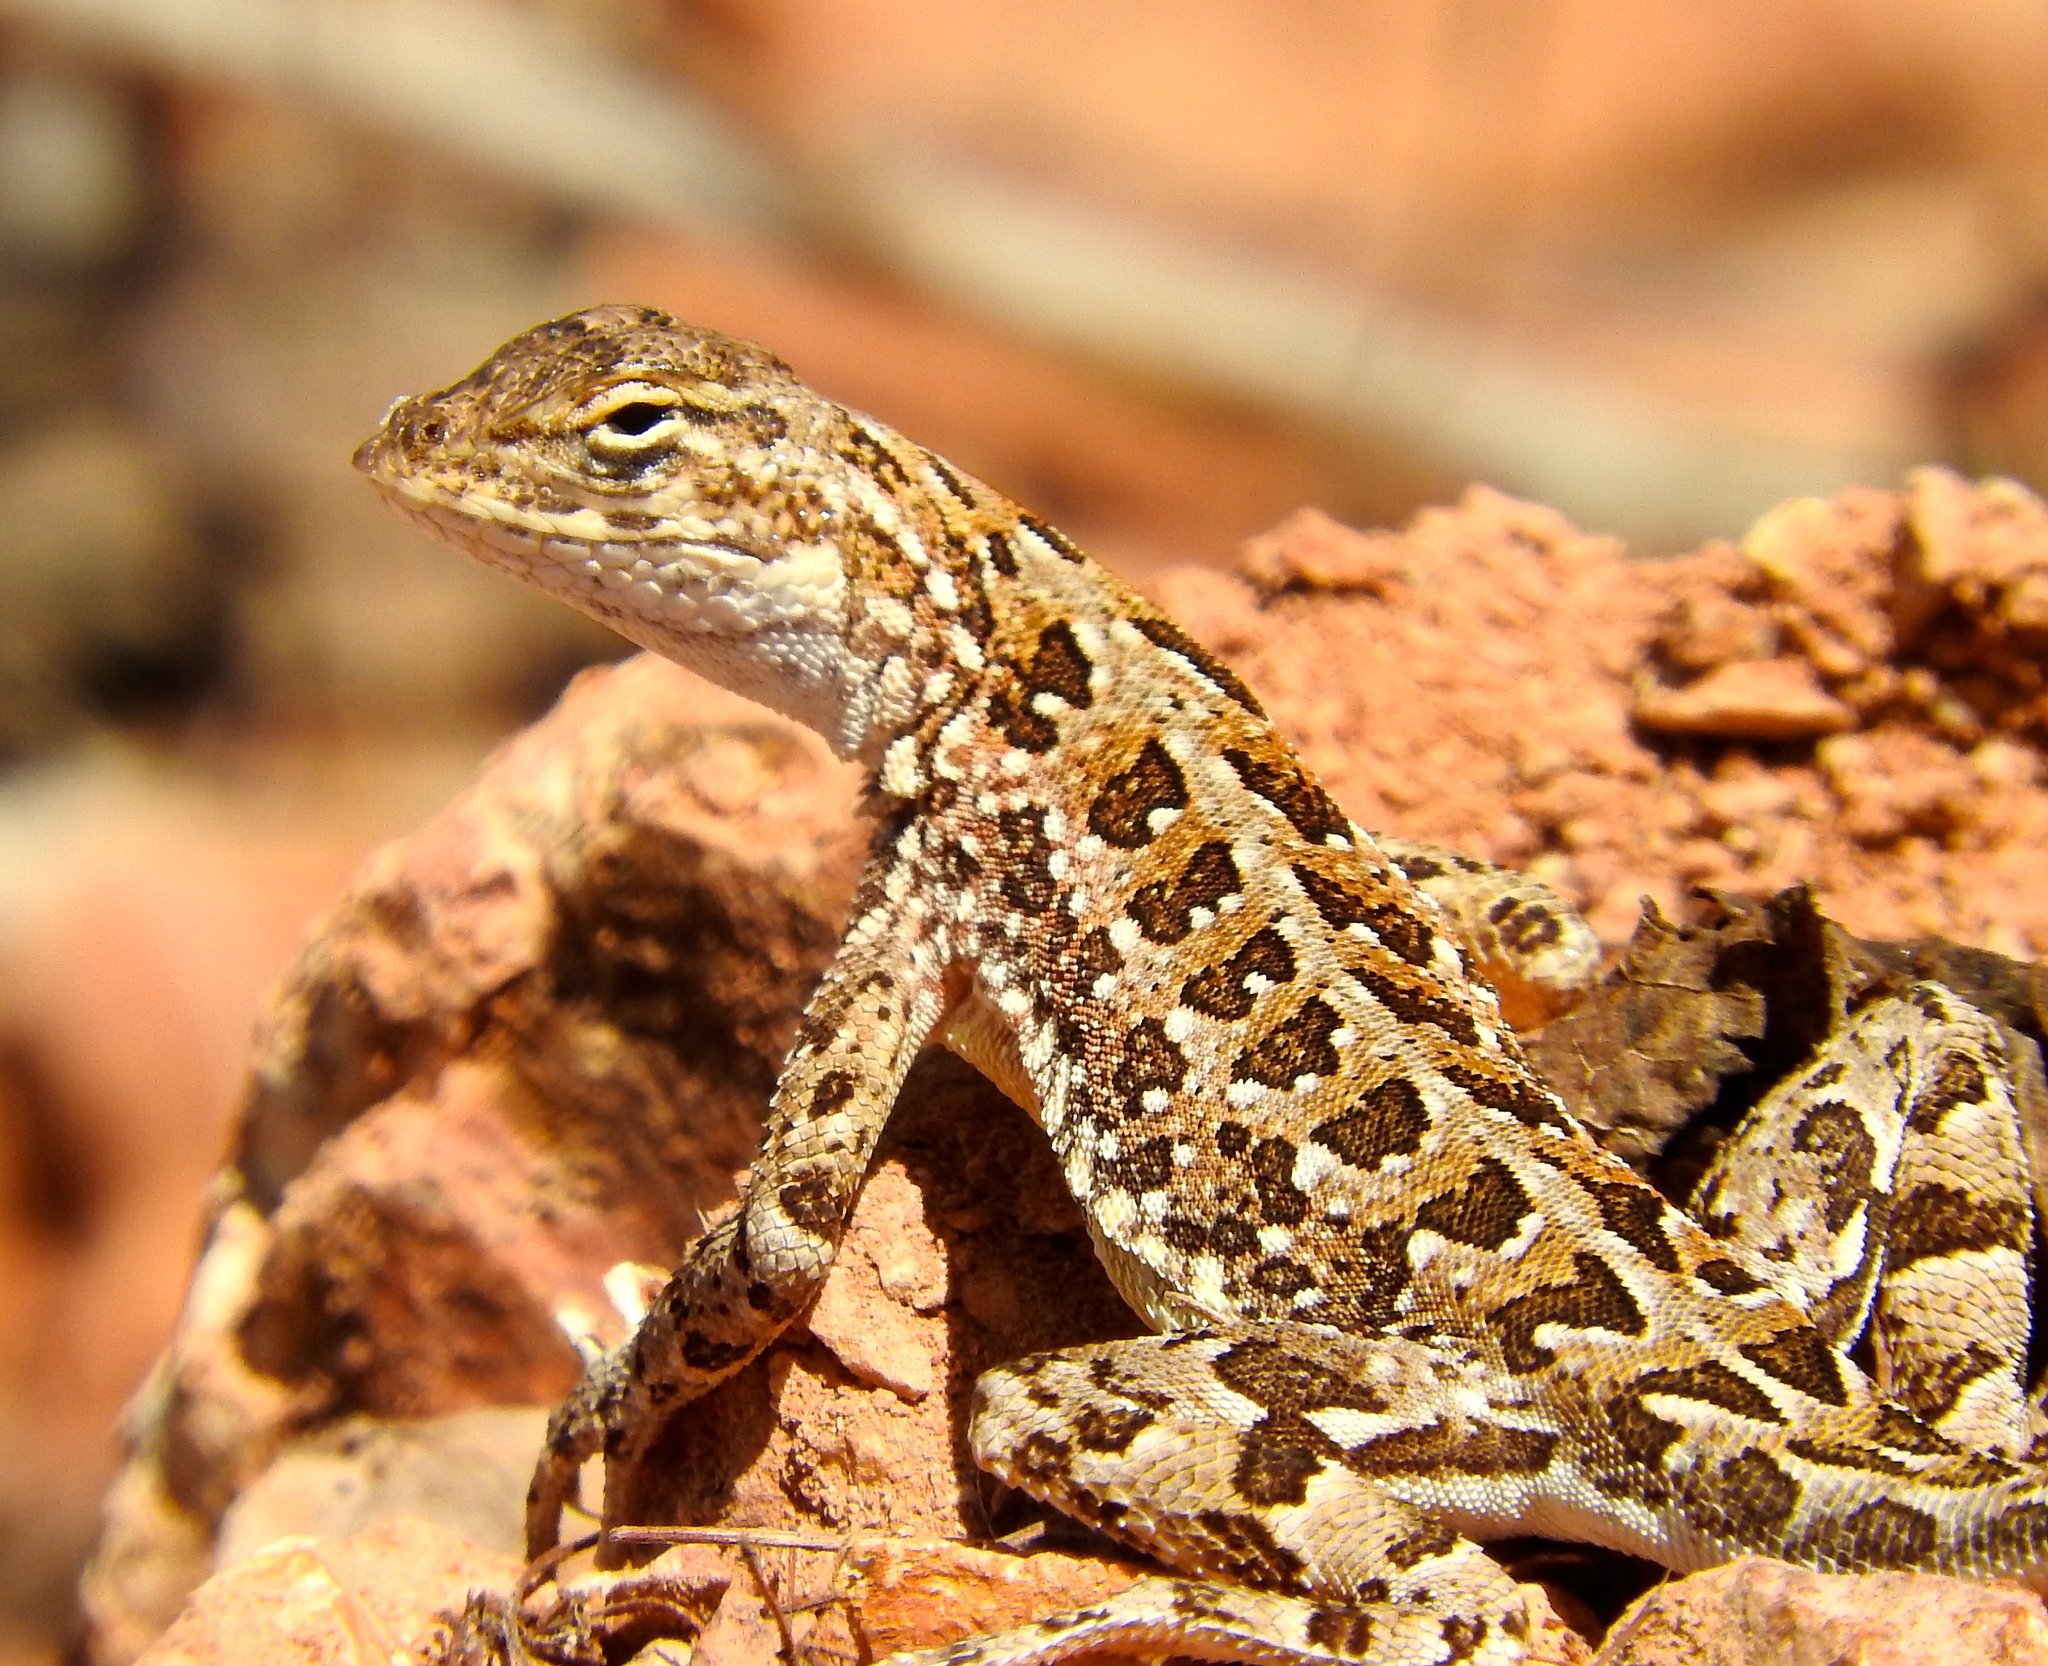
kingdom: Animalia
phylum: Chordata
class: Squamata
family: Phrynosomatidae
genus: Holbrookia
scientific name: Holbrookia elegans
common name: Elegant earless lizard
